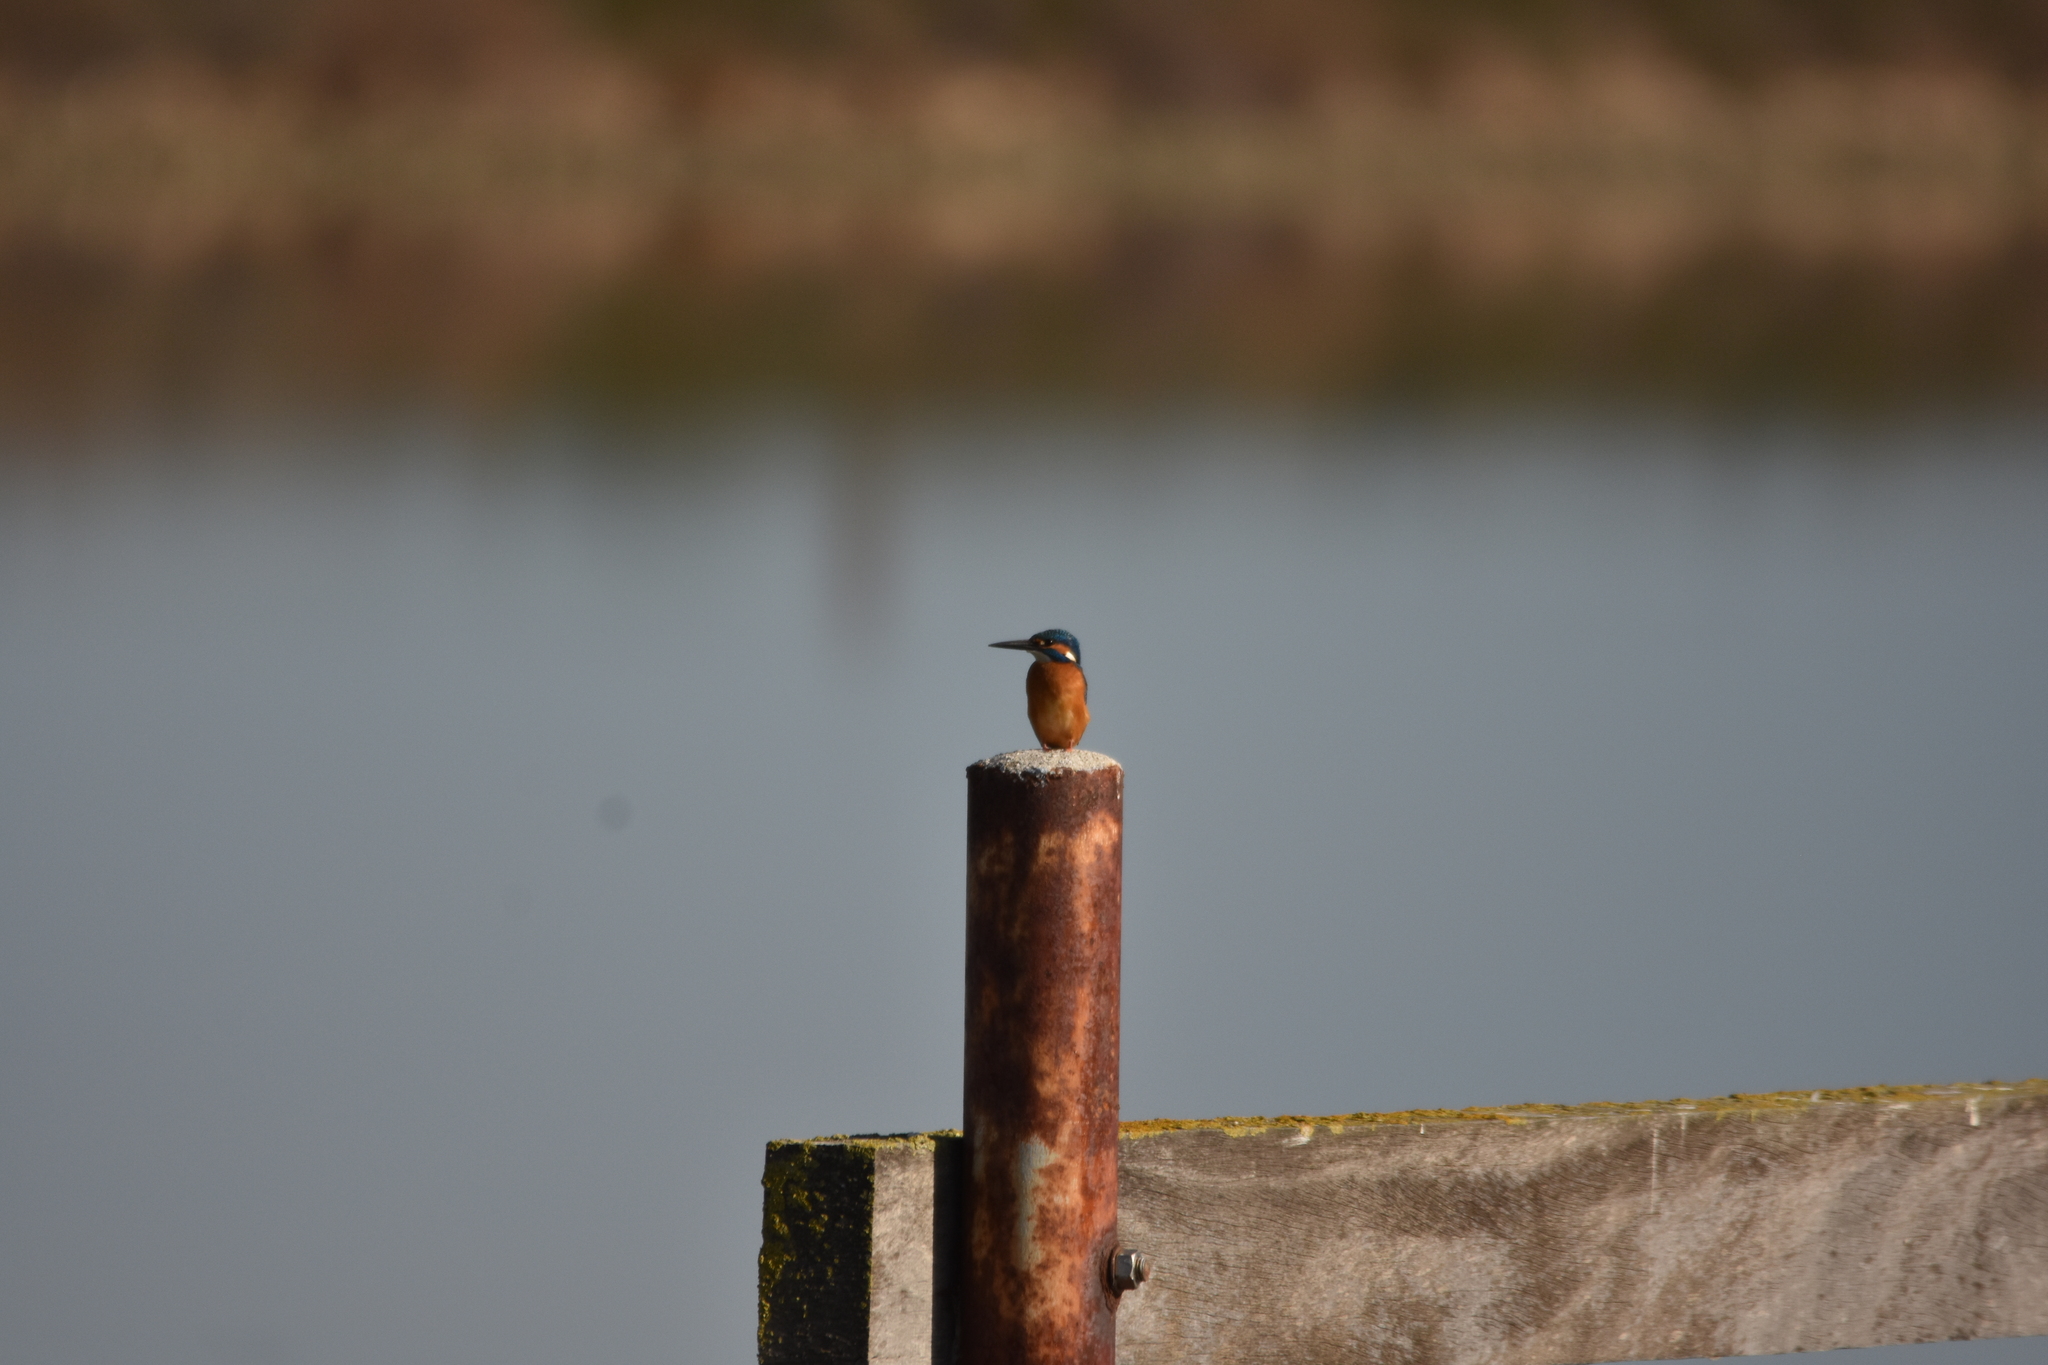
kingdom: Animalia
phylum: Chordata
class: Aves
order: Coraciiformes
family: Alcedinidae
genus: Alcedo
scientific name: Alcedo atthis
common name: Common kingfisher
